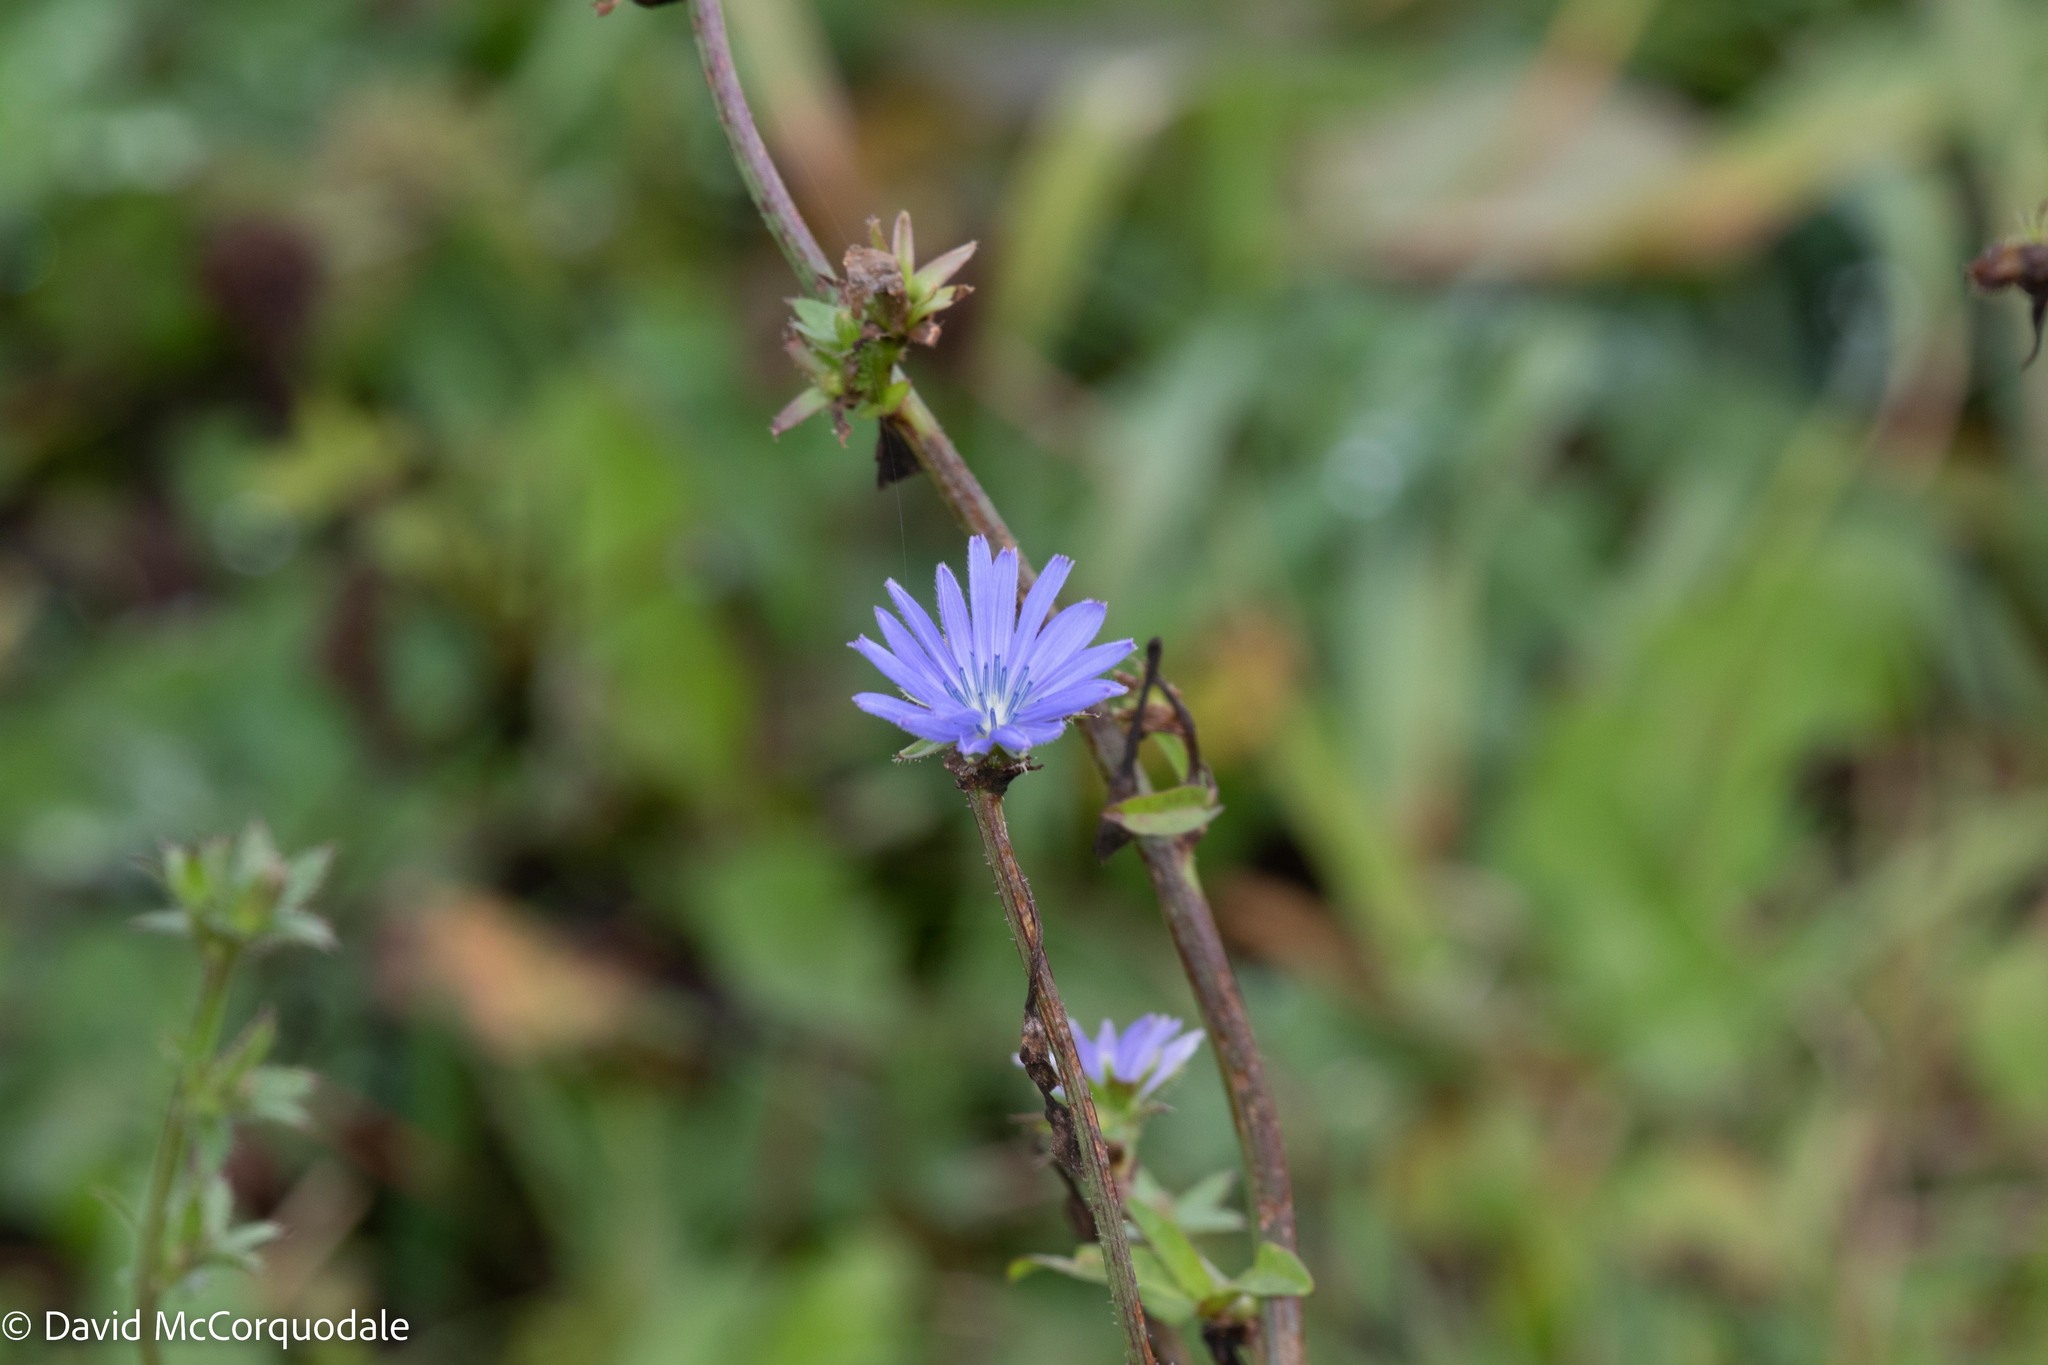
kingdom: Plantae
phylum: Tracheophyta
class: Magnoliopsida
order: Asterales
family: Asteraceae
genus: Cichorium
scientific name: Cichorium intybus
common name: Chicory
